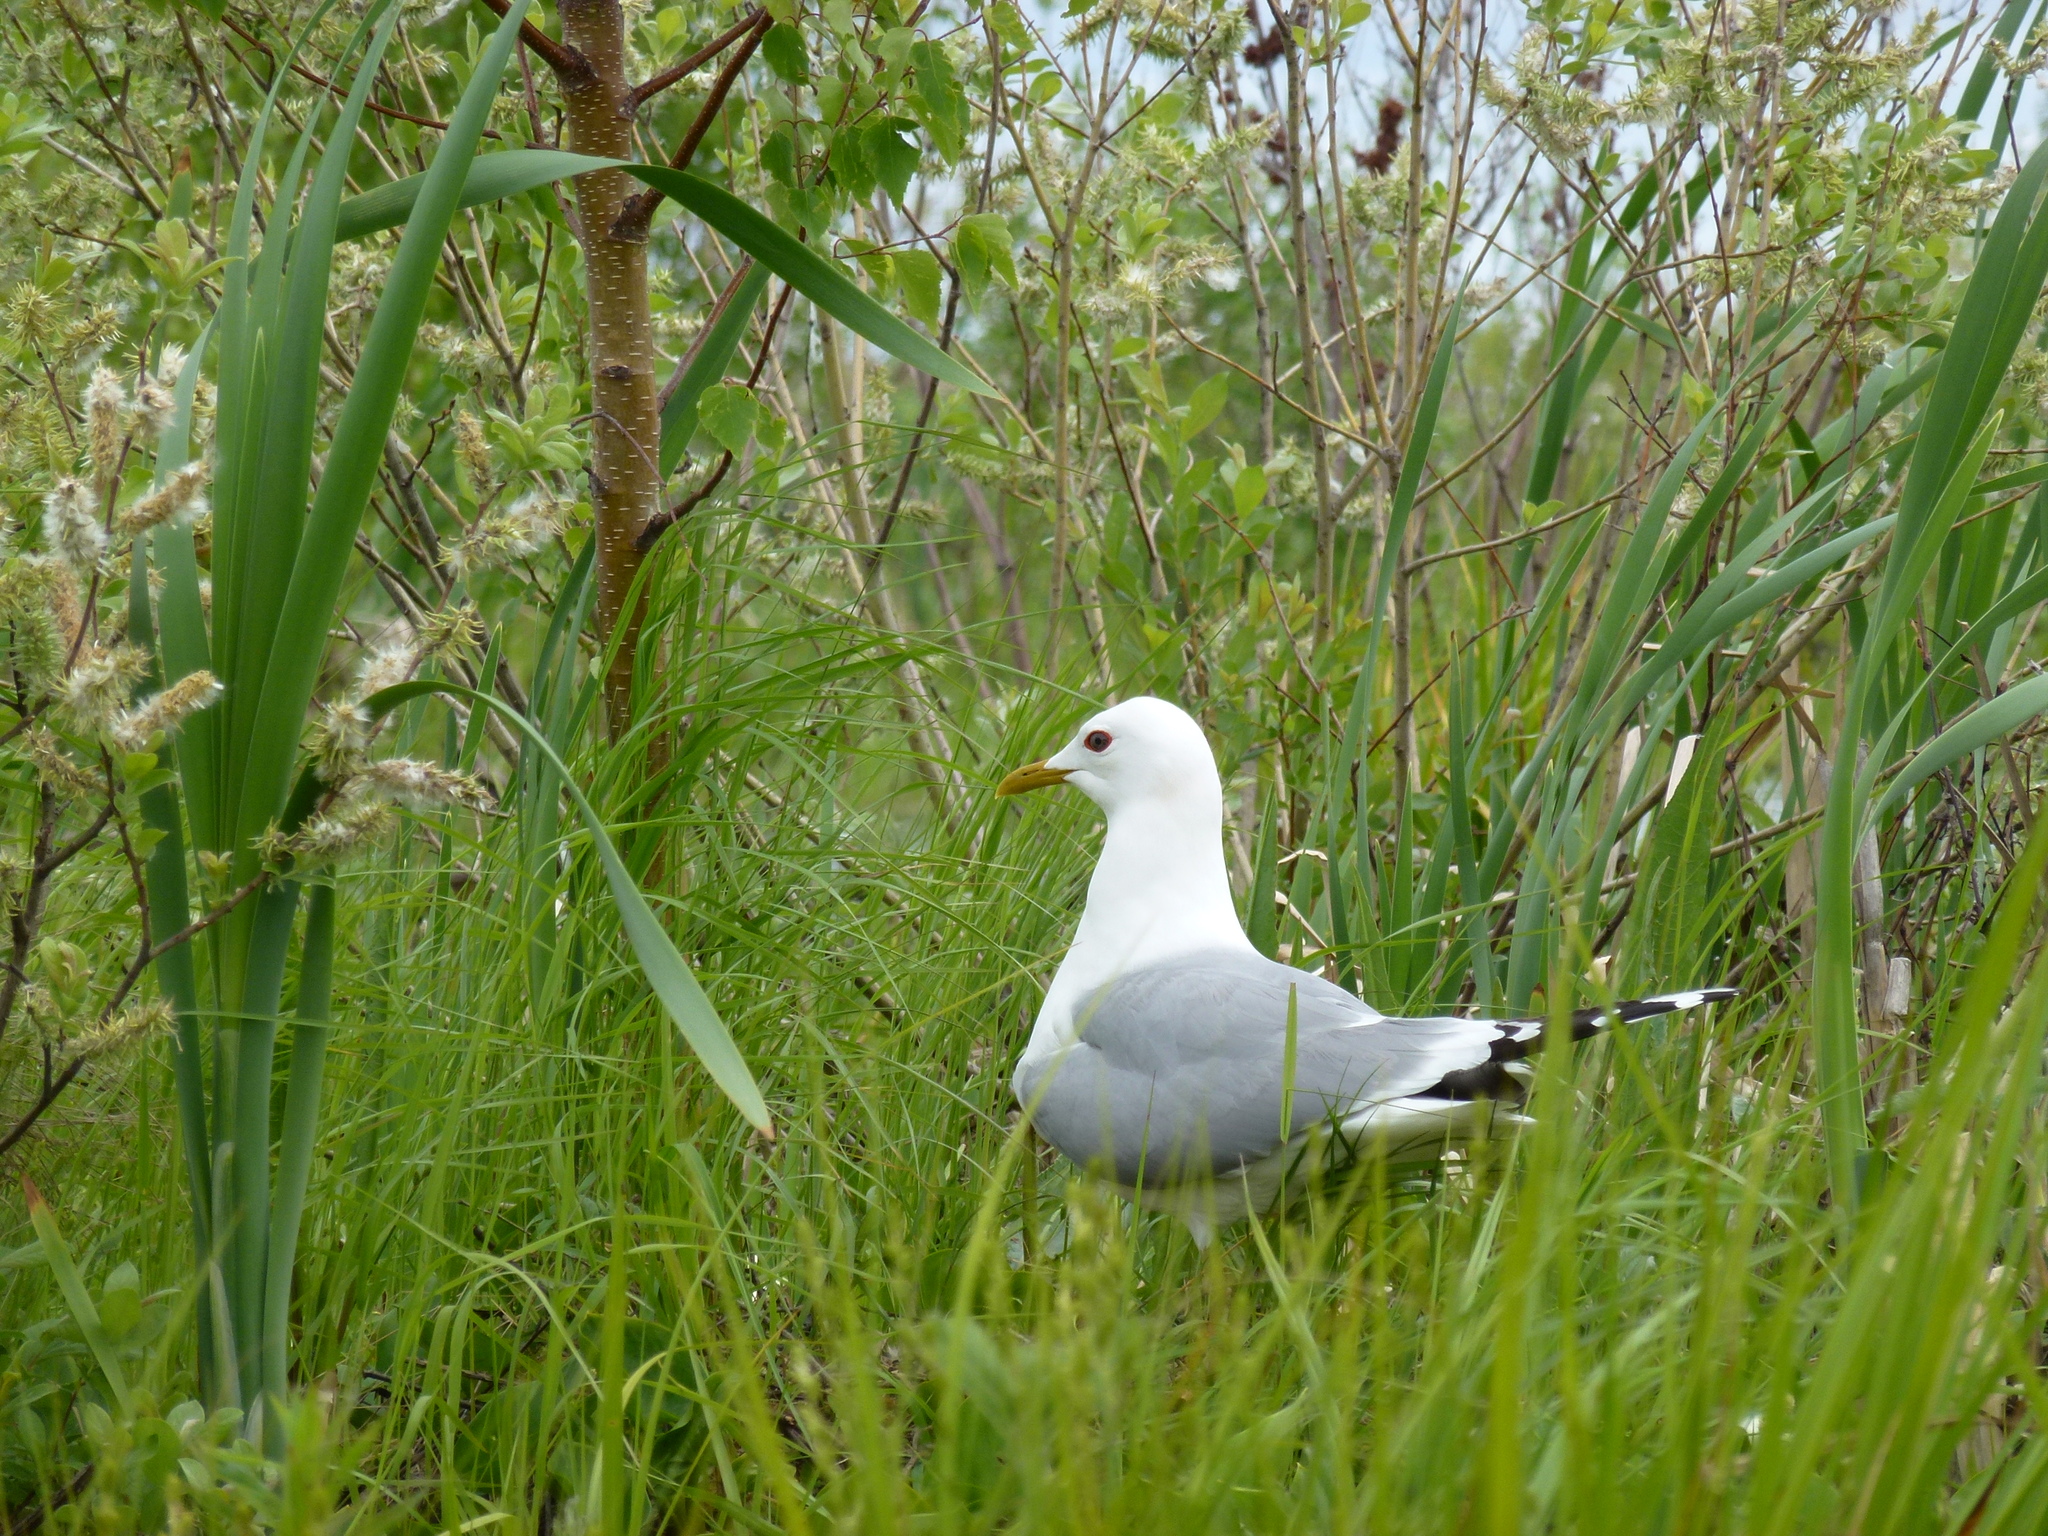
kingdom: Animalia
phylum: Chordata
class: Aves
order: Charadriiformes
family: Laridae
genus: Larus
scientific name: Larus canus
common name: Mew gull
